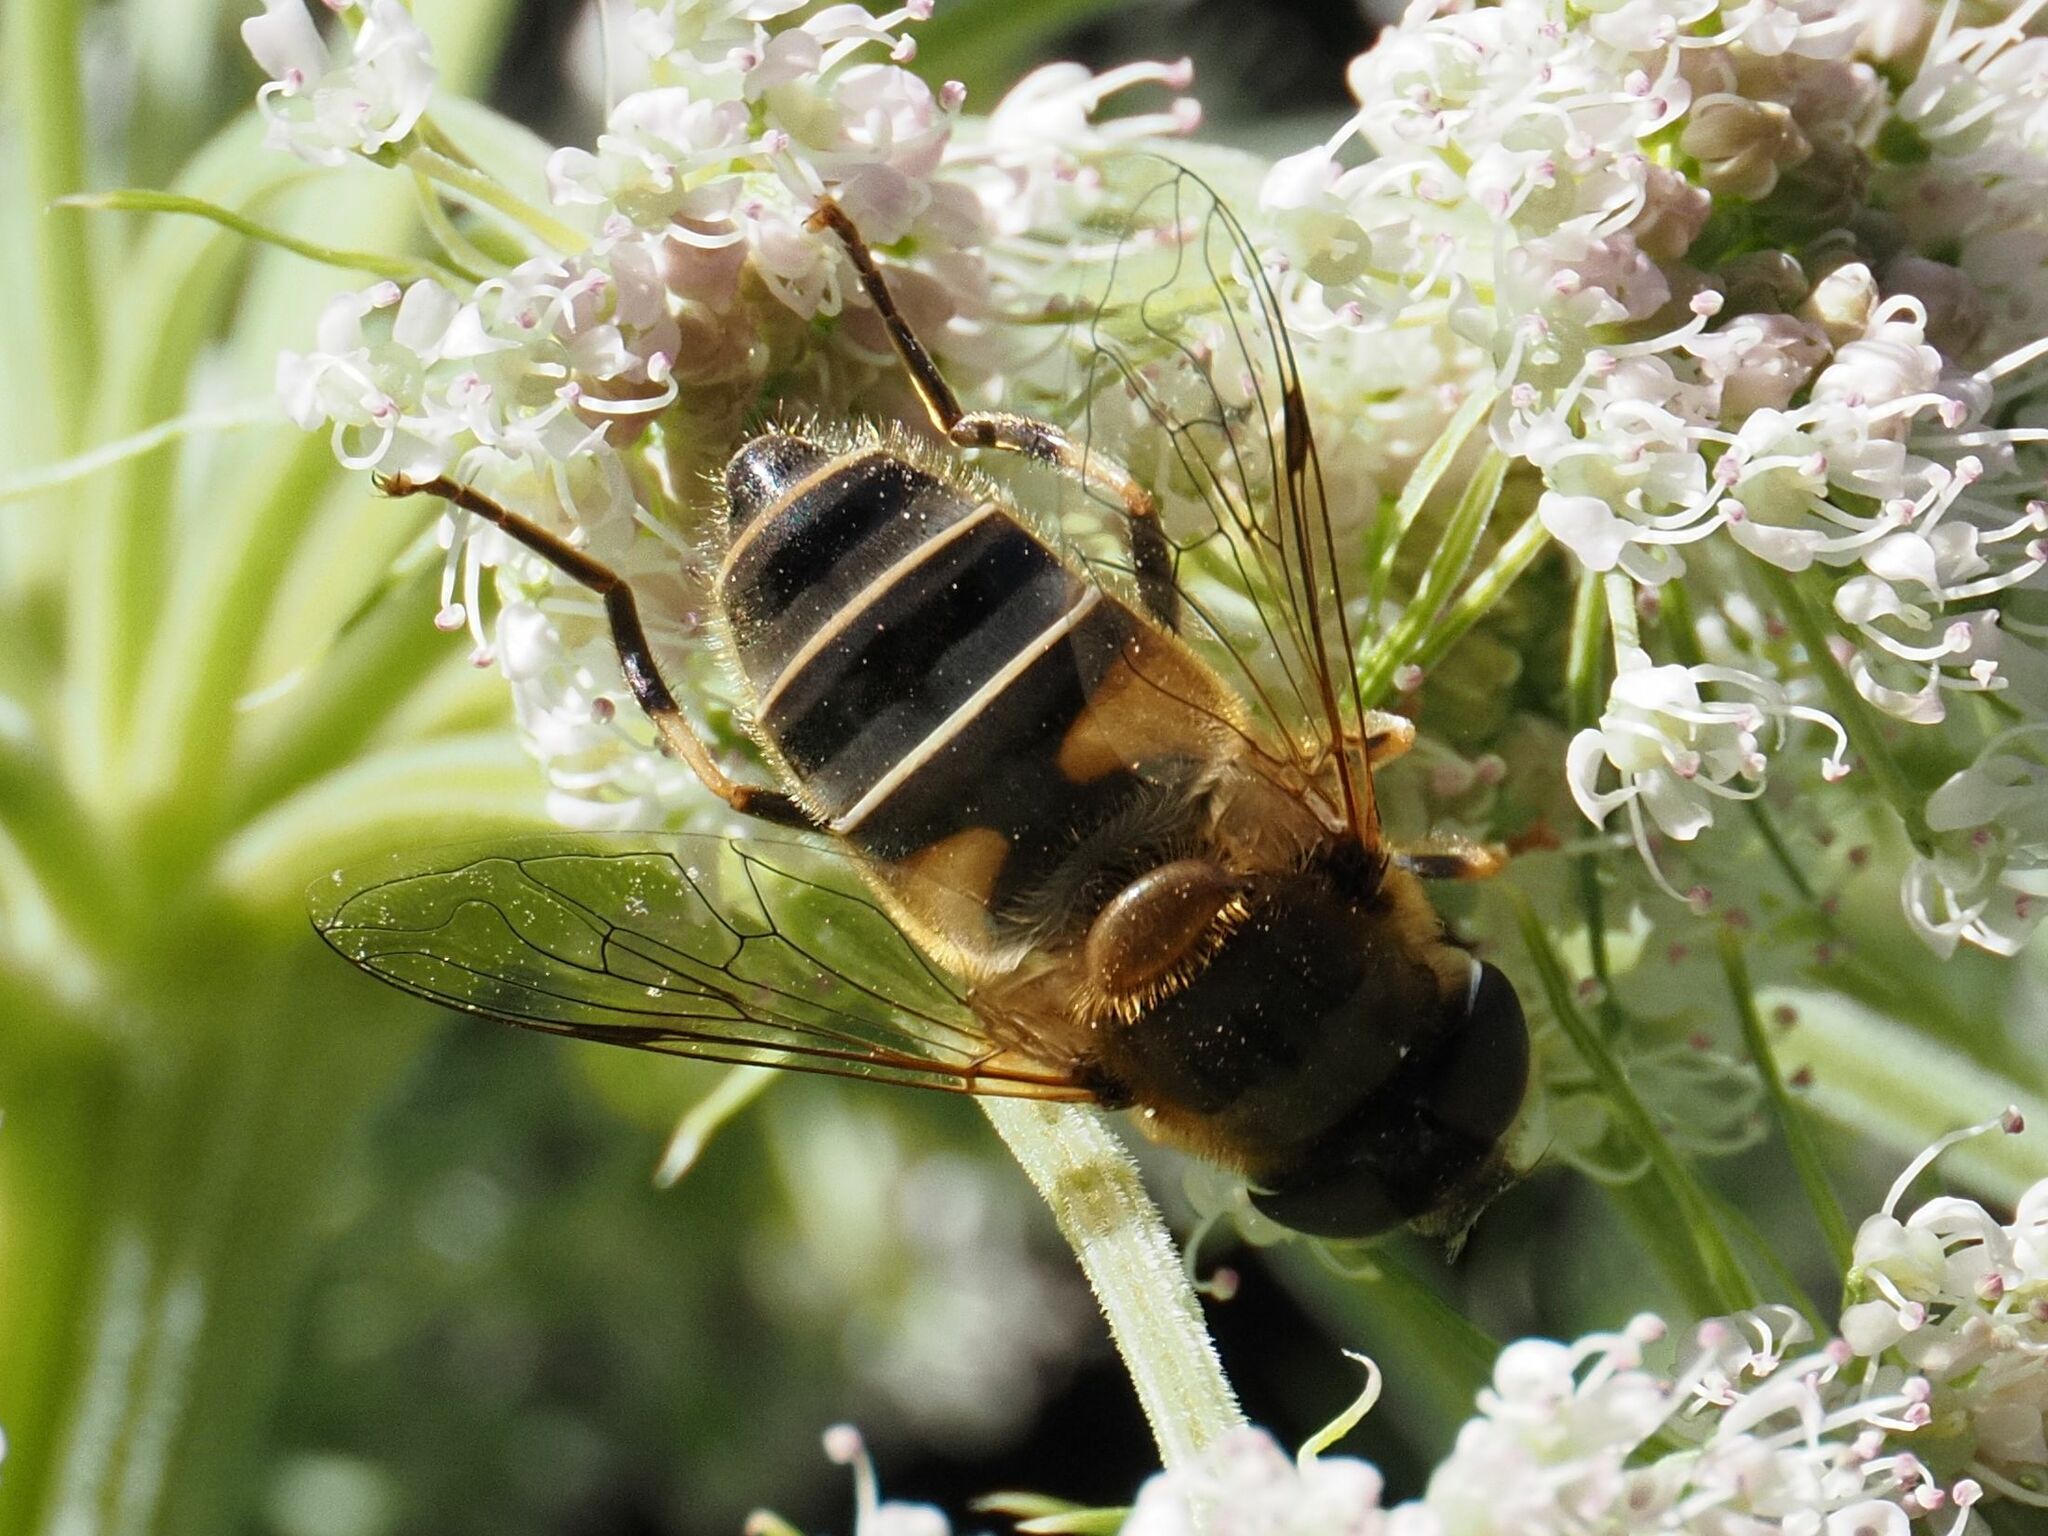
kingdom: Animalia
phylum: Arthropoda
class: Insecta
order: Diptera
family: Syrphidae
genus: Eristalis
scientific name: Eristalis pertinax
